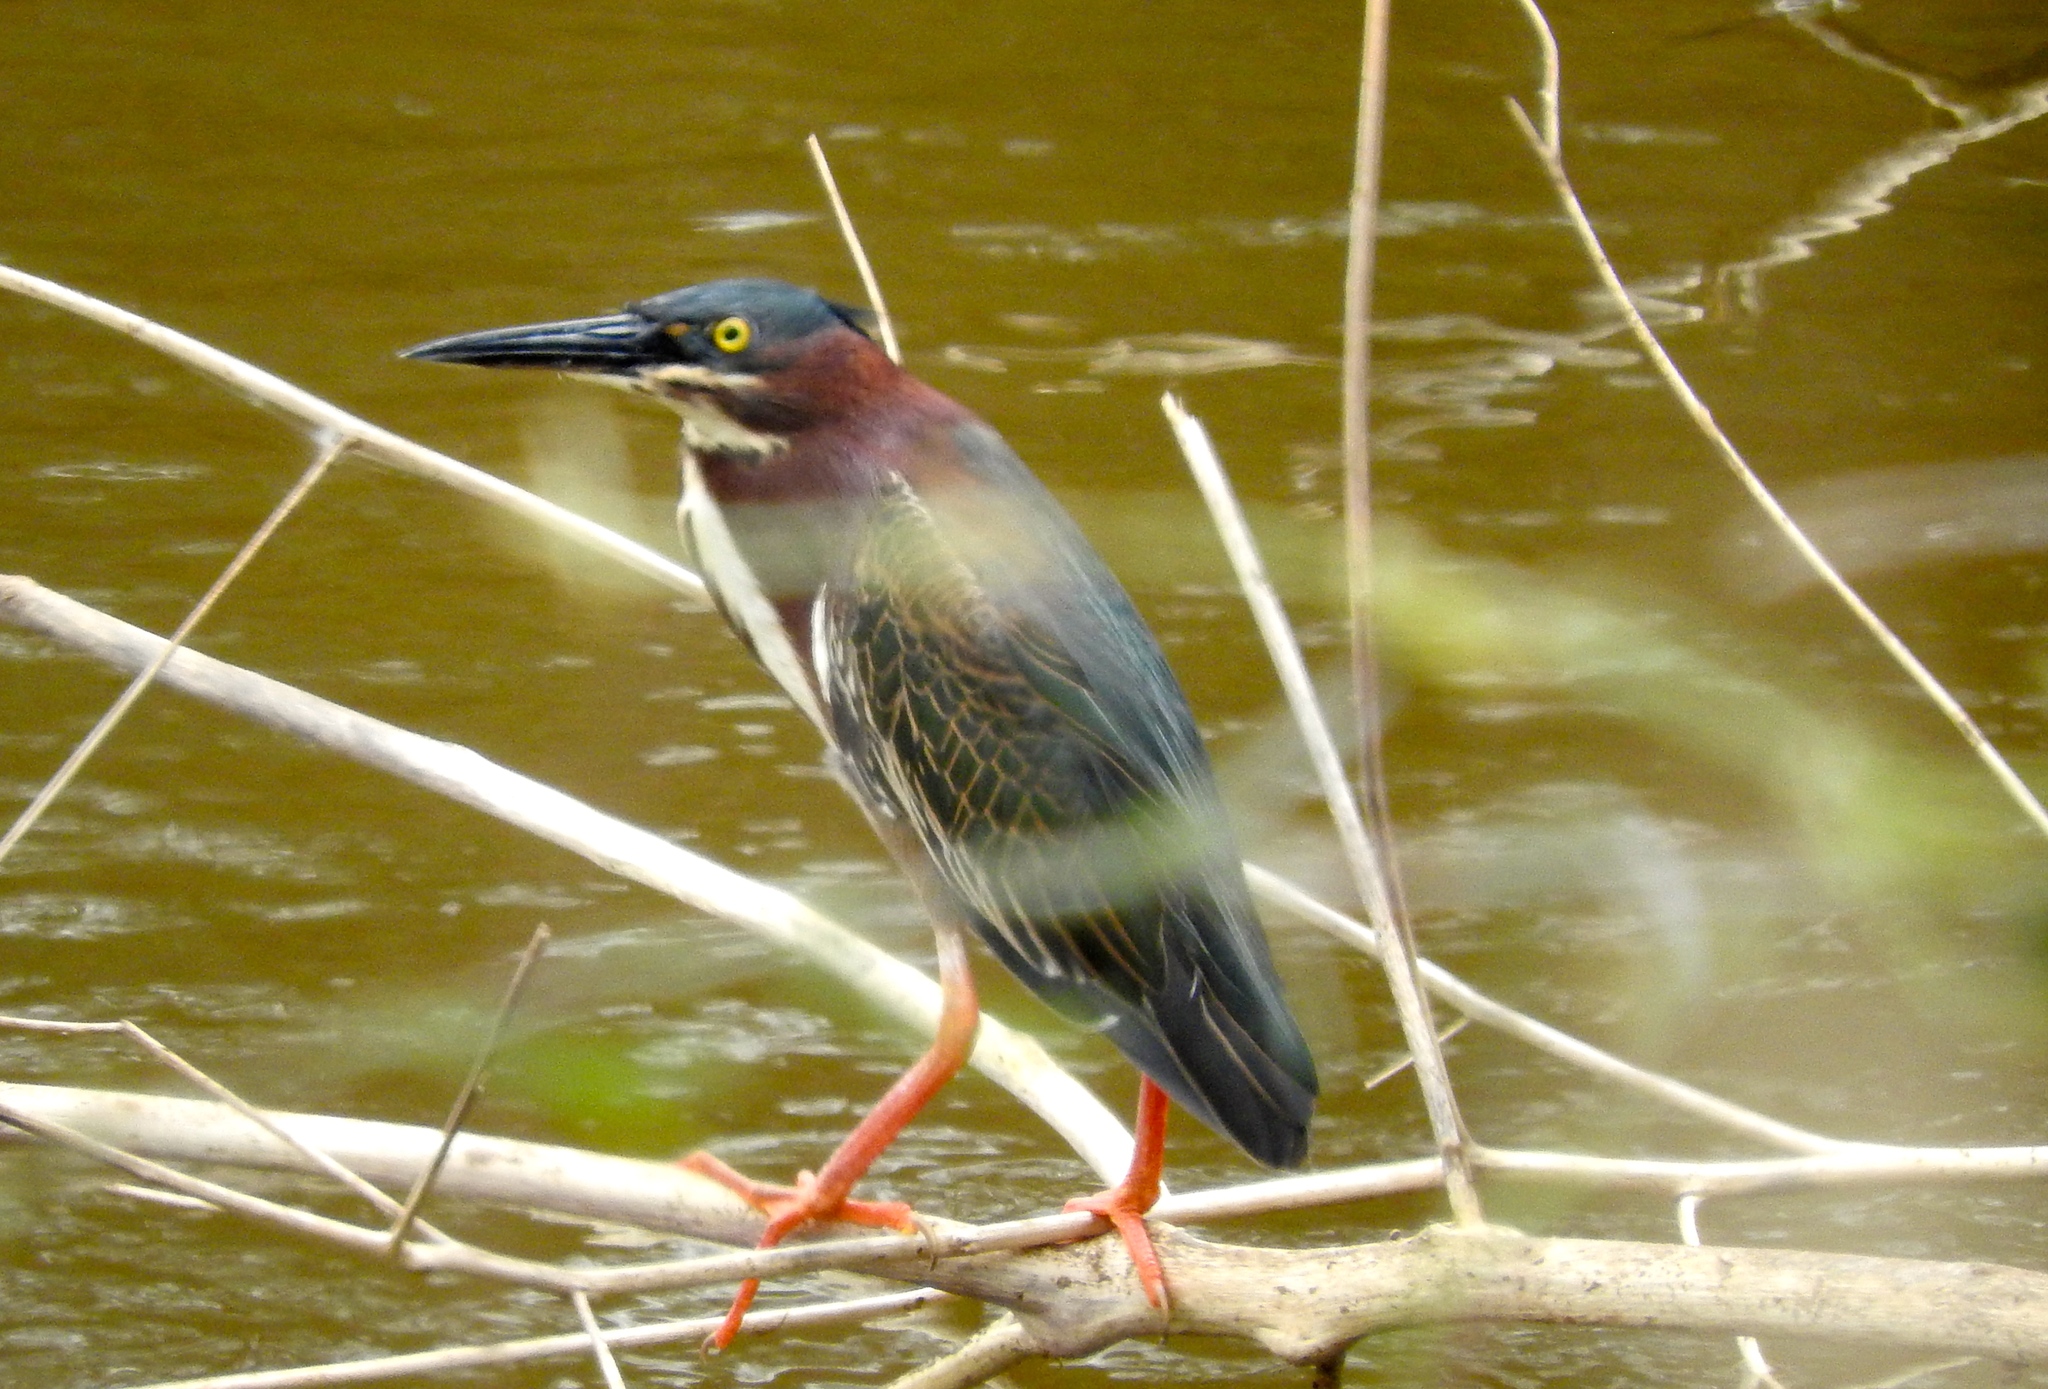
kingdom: Animalia
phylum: Chordata
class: Aves
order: Pelecaniformes
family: Ardeidae
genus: Butorides
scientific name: Butorides virescens
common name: Green heron
